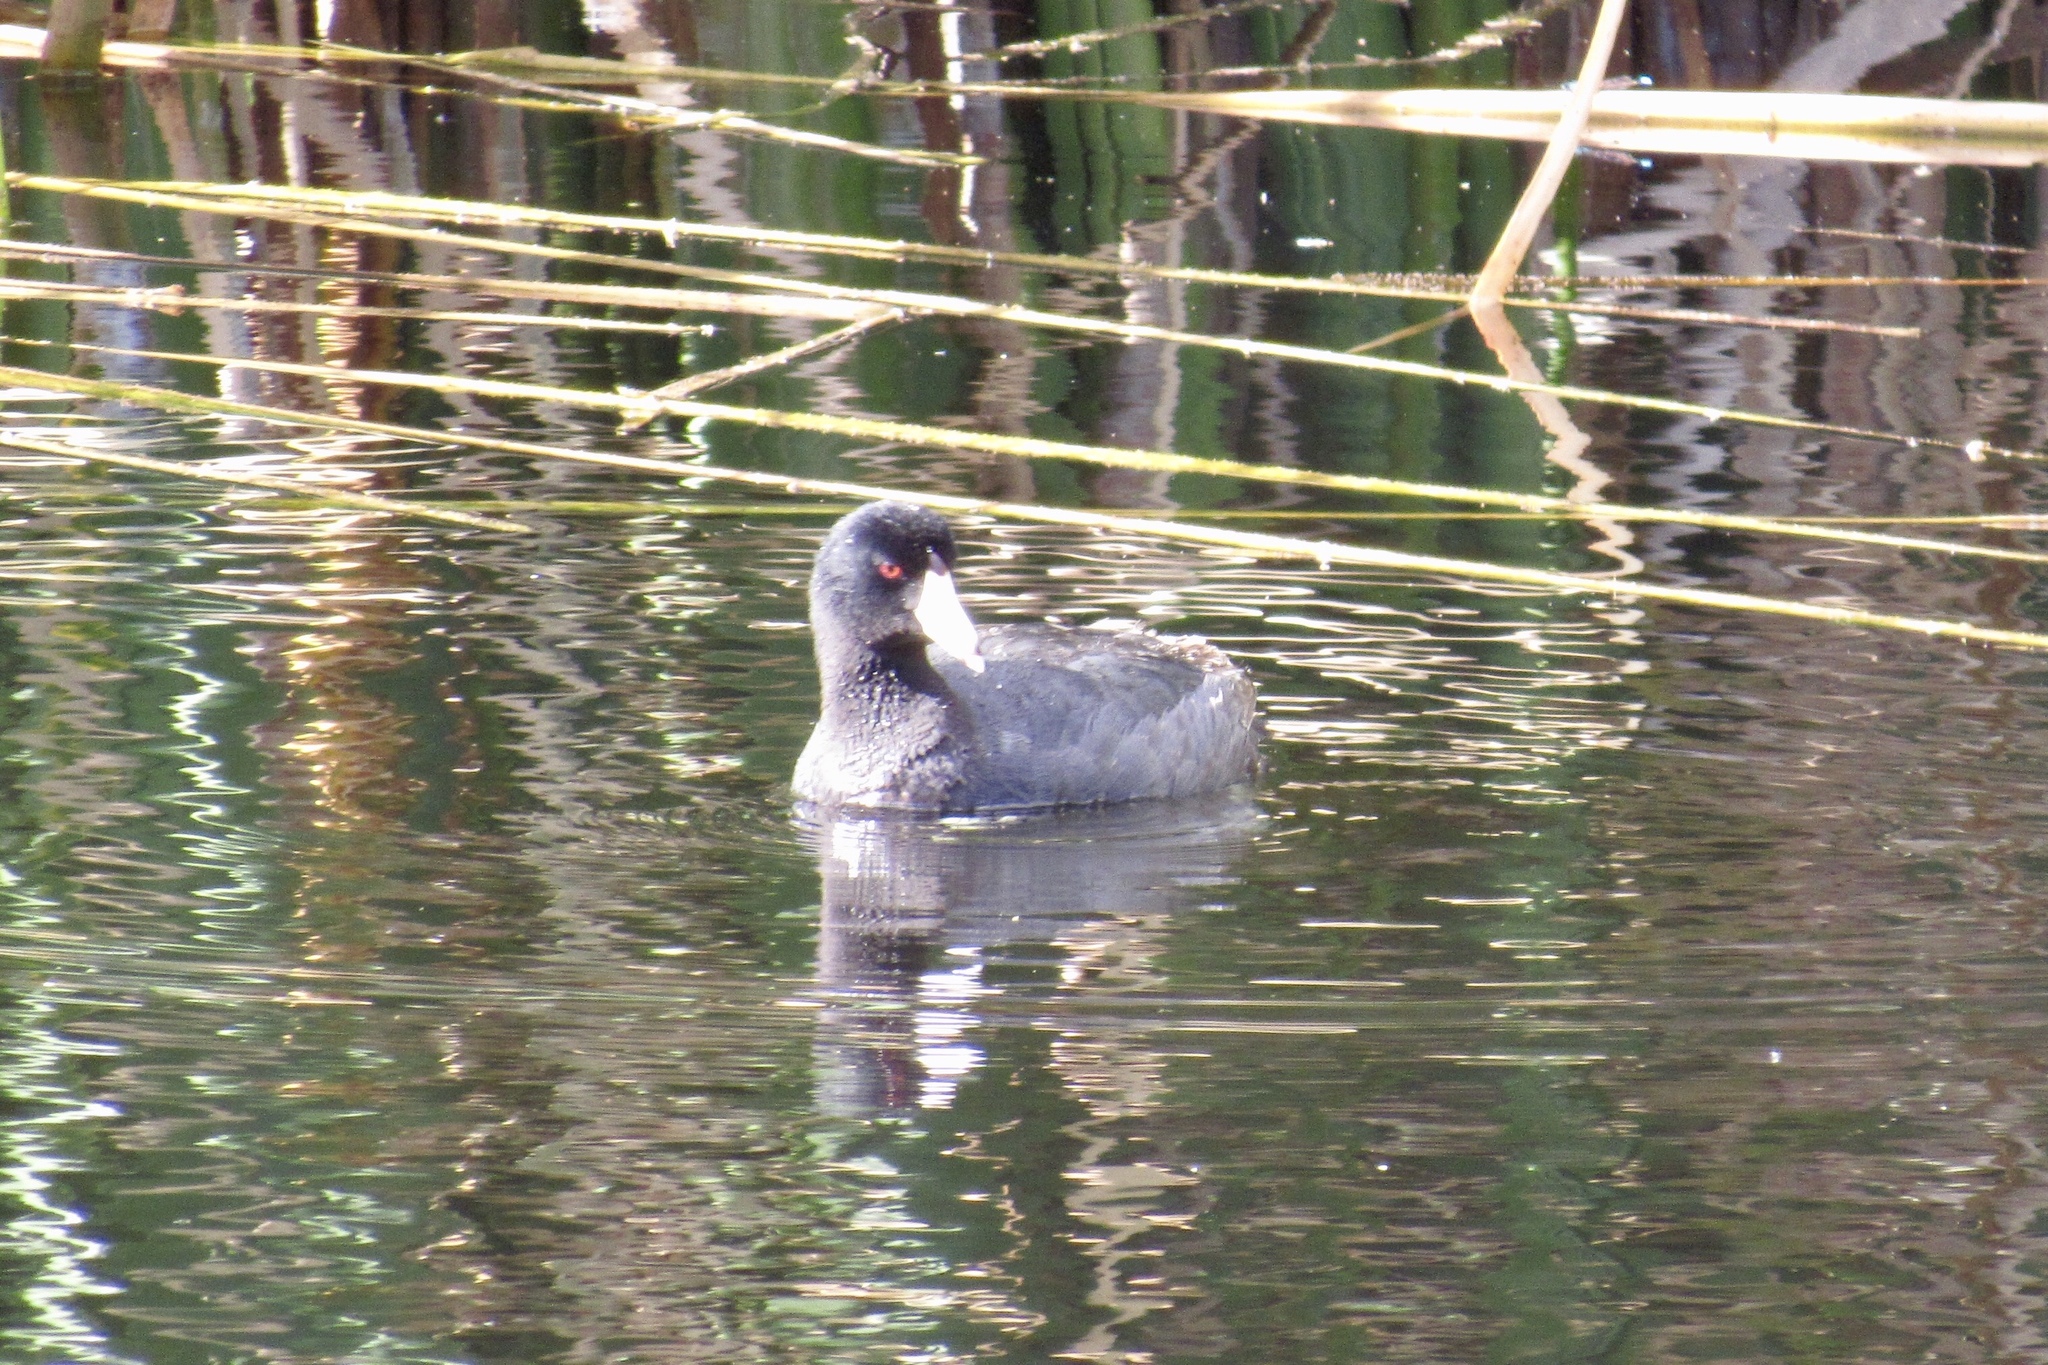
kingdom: Animalia
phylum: Chordata
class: Aves
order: Gruiformes
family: Rallidae
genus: Fulica
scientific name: Fulica americana
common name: American coot
